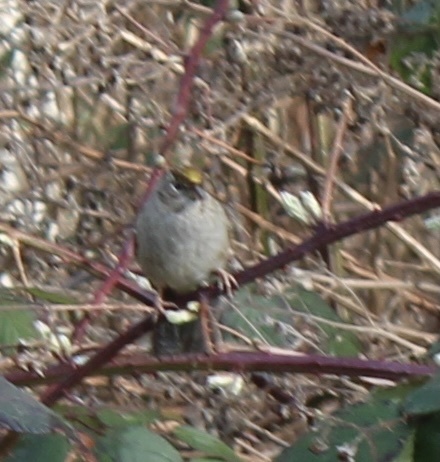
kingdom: Animalia
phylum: Chordata
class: Aves
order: Passeriformes
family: Passerellidae
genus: Zonotrichia
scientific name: Zonotrichia atricapilla
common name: Golden-crowned sparrow
